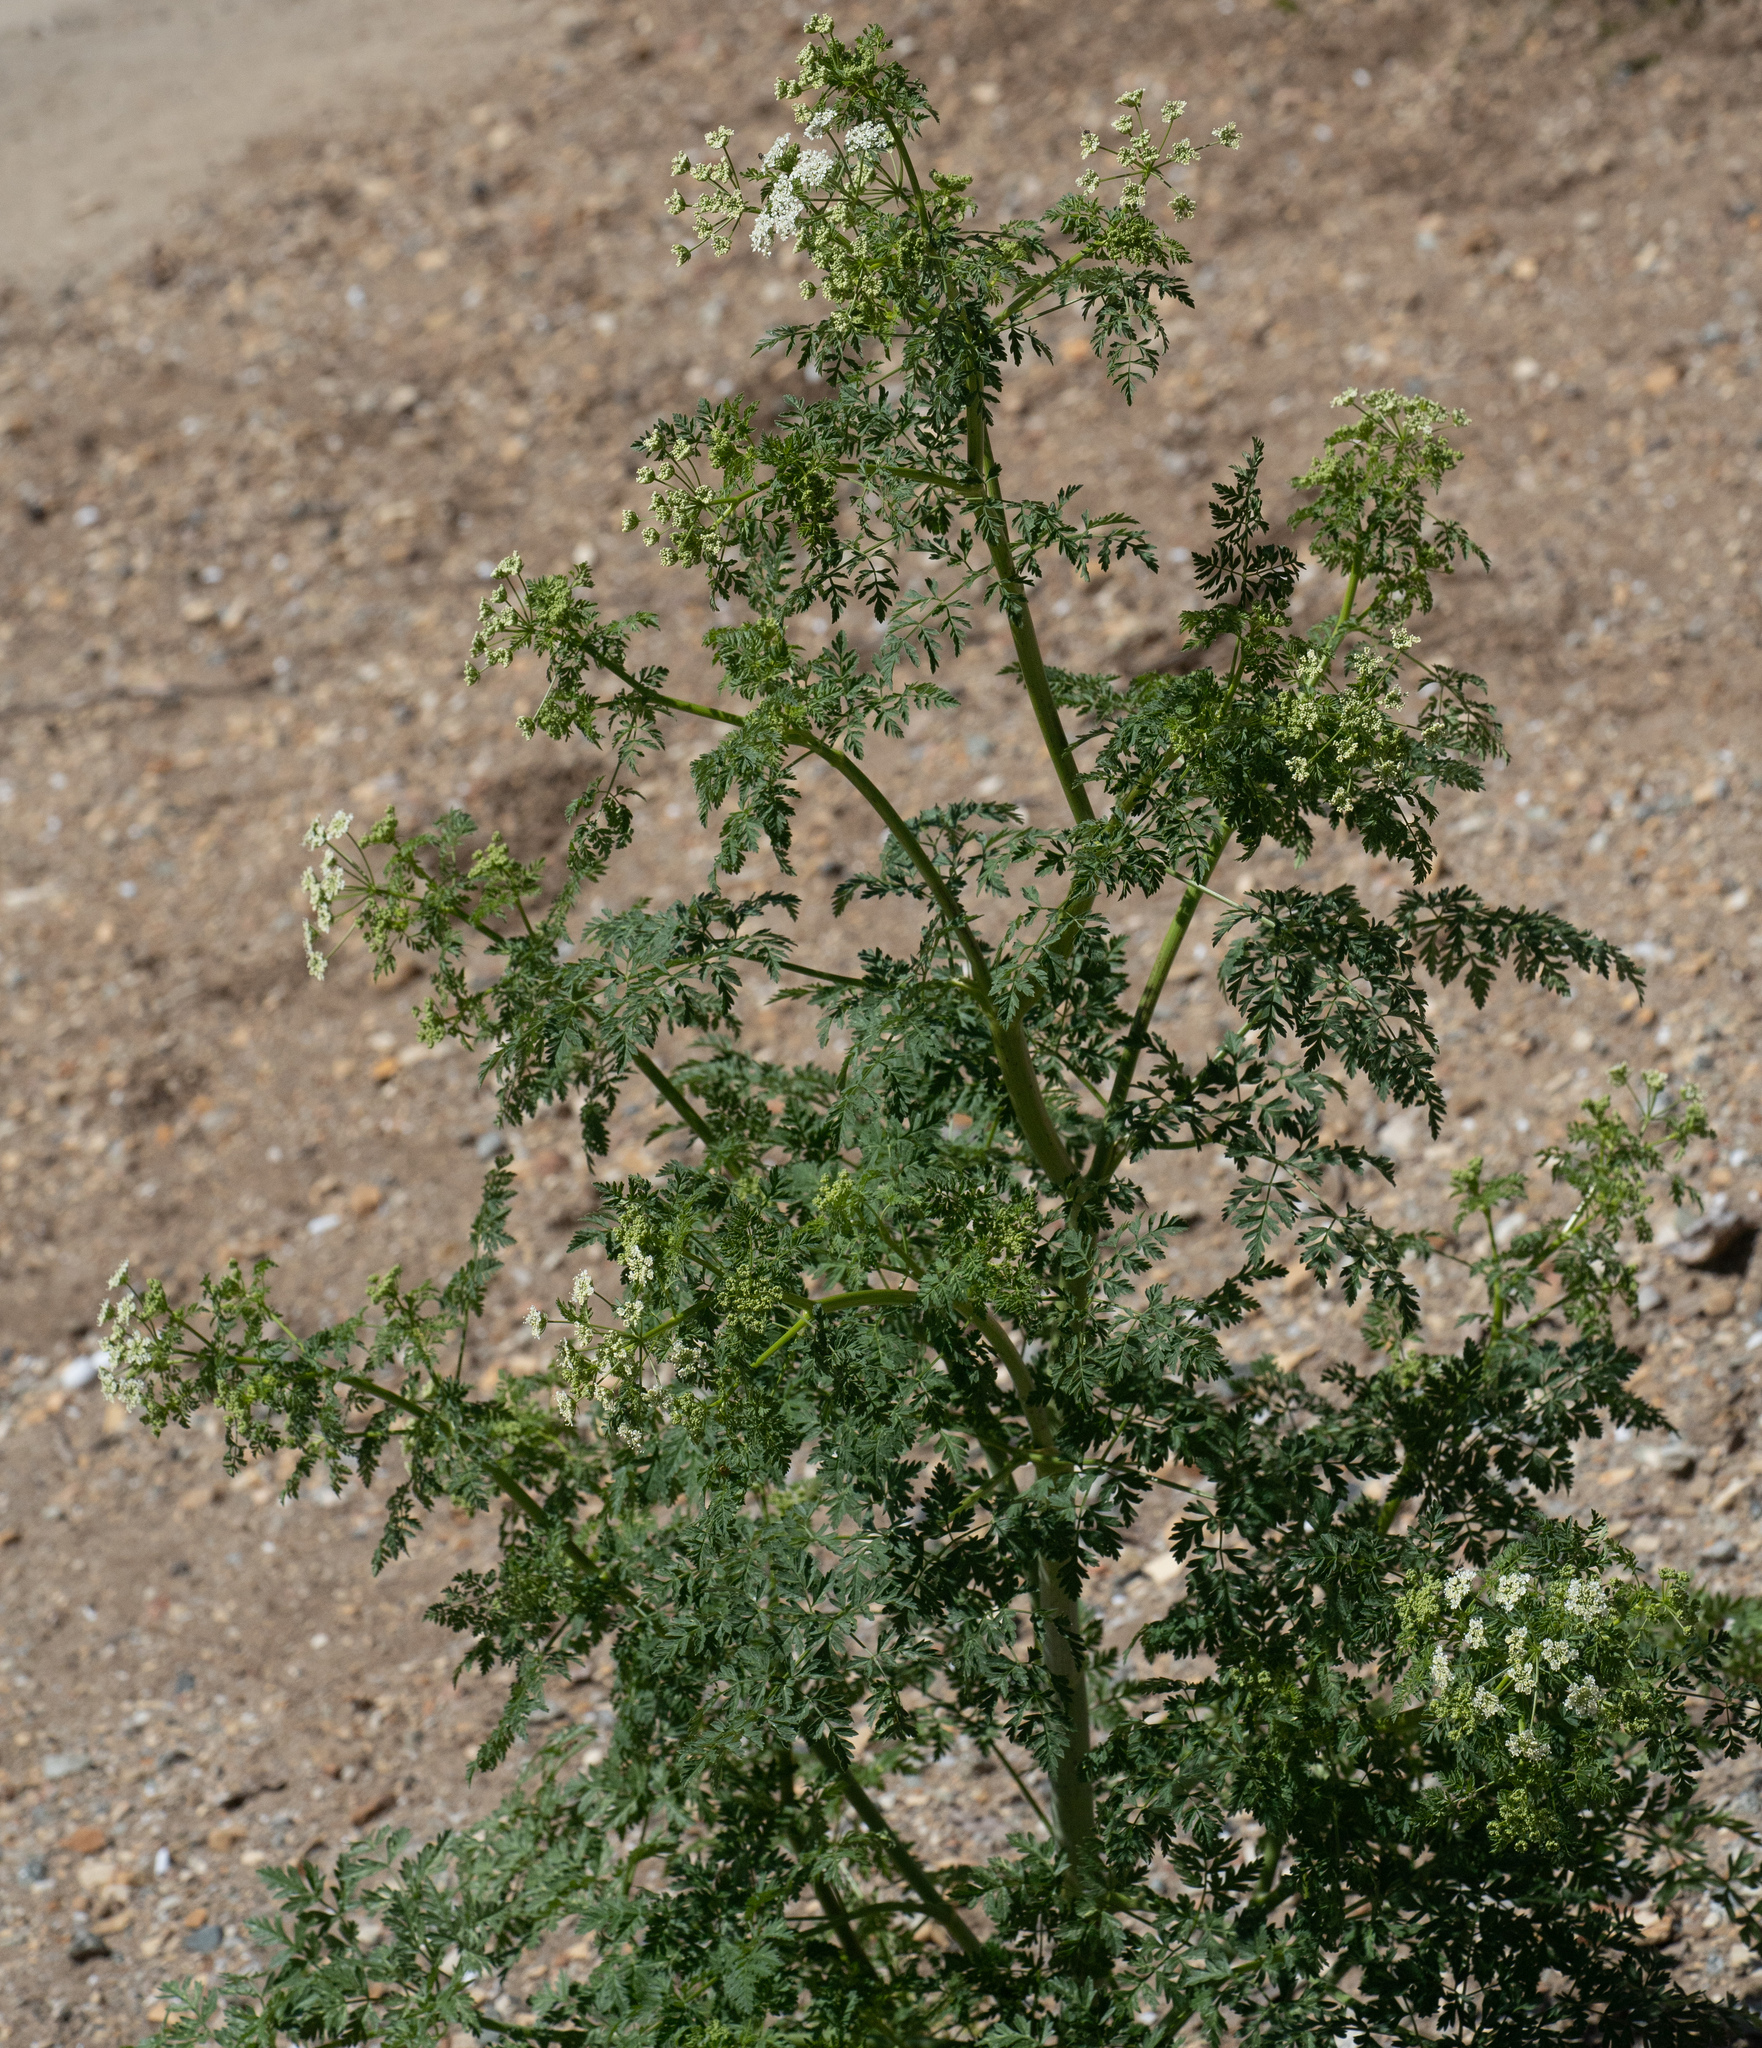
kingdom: Plantae
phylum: Tracheophyta
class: Magnoliopsida
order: Apiales
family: Apiaceae
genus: Conium
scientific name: Conium maculatum
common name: Hemlock
